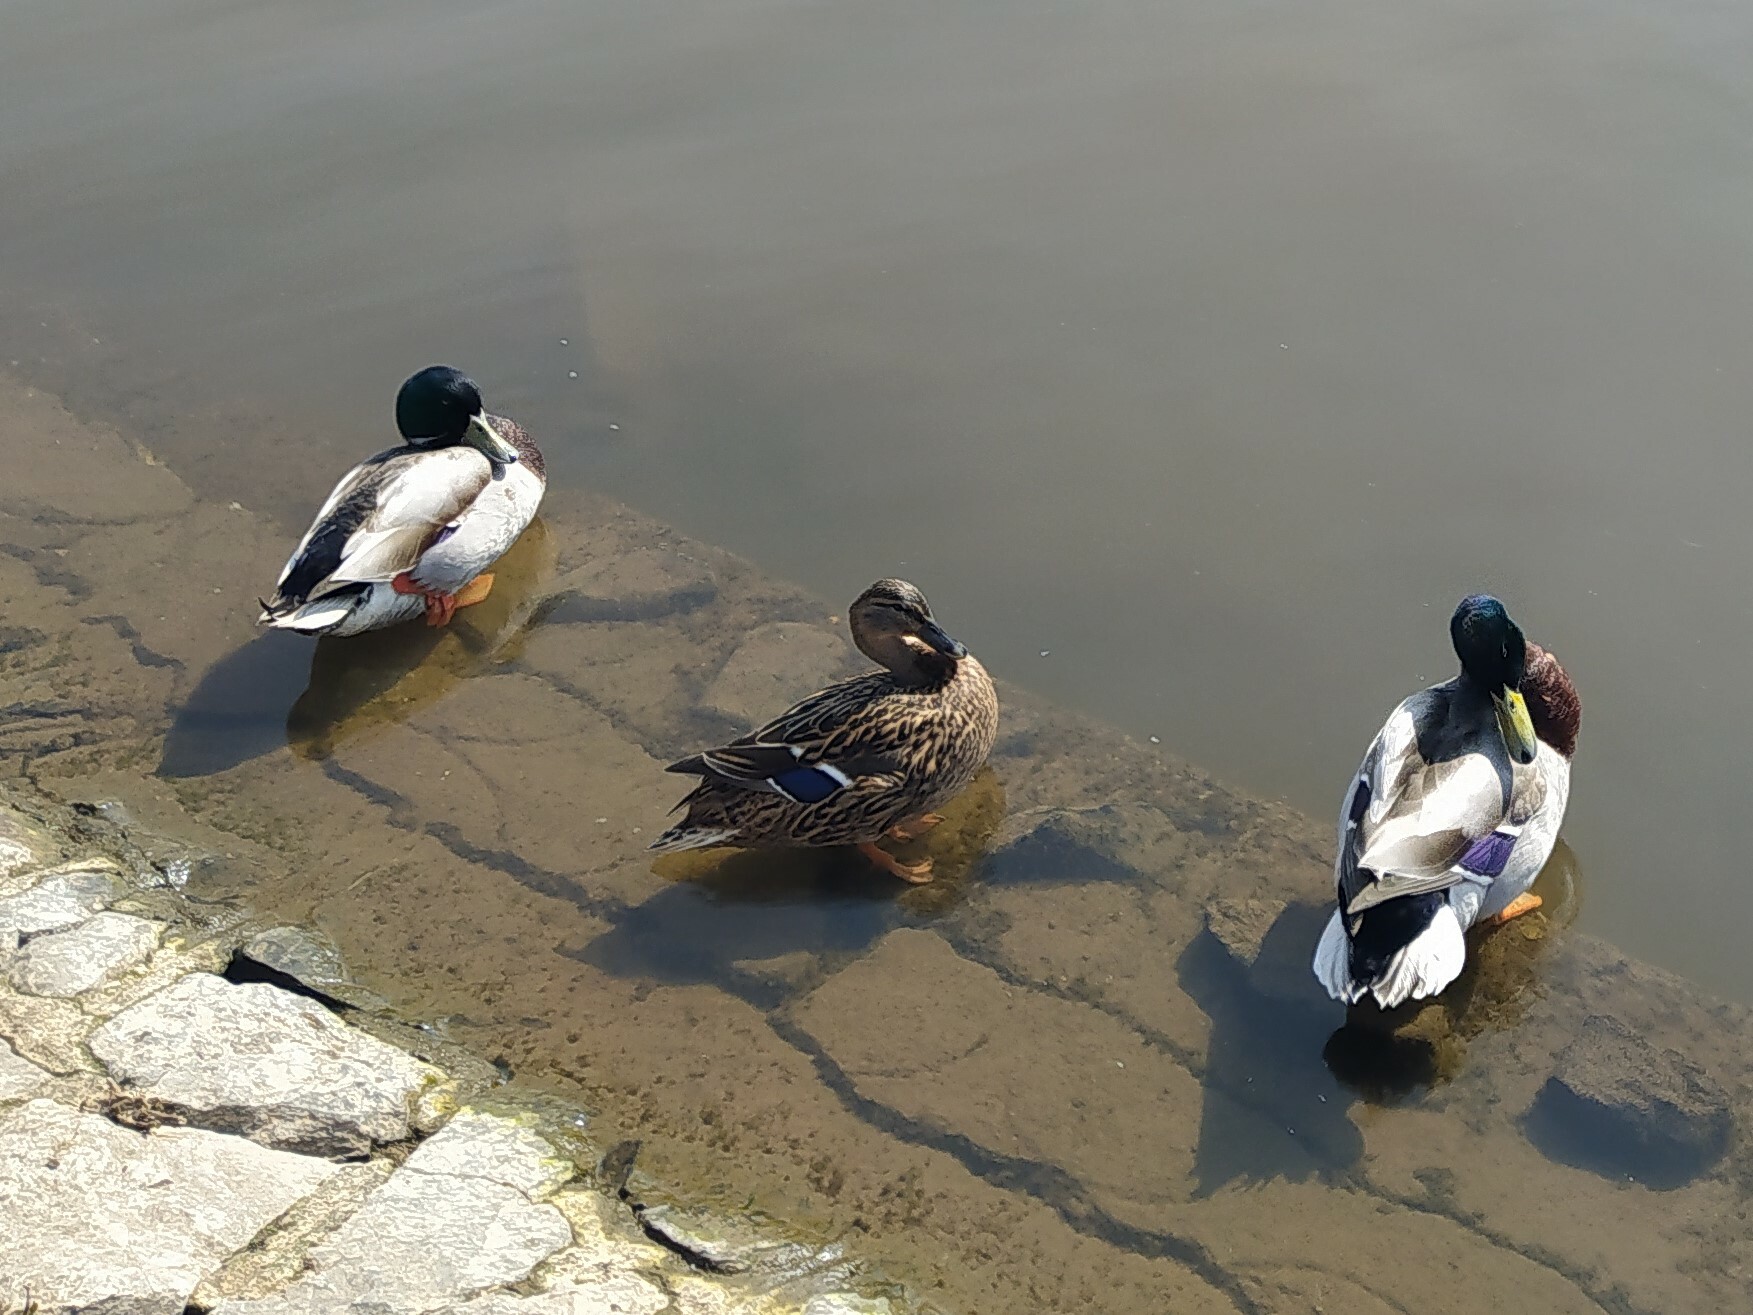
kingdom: Animalia
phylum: Chordata
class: Aves
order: Anseriformes
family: Anatidae
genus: Anas
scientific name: Anas platyrhynchos
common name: Mallard
